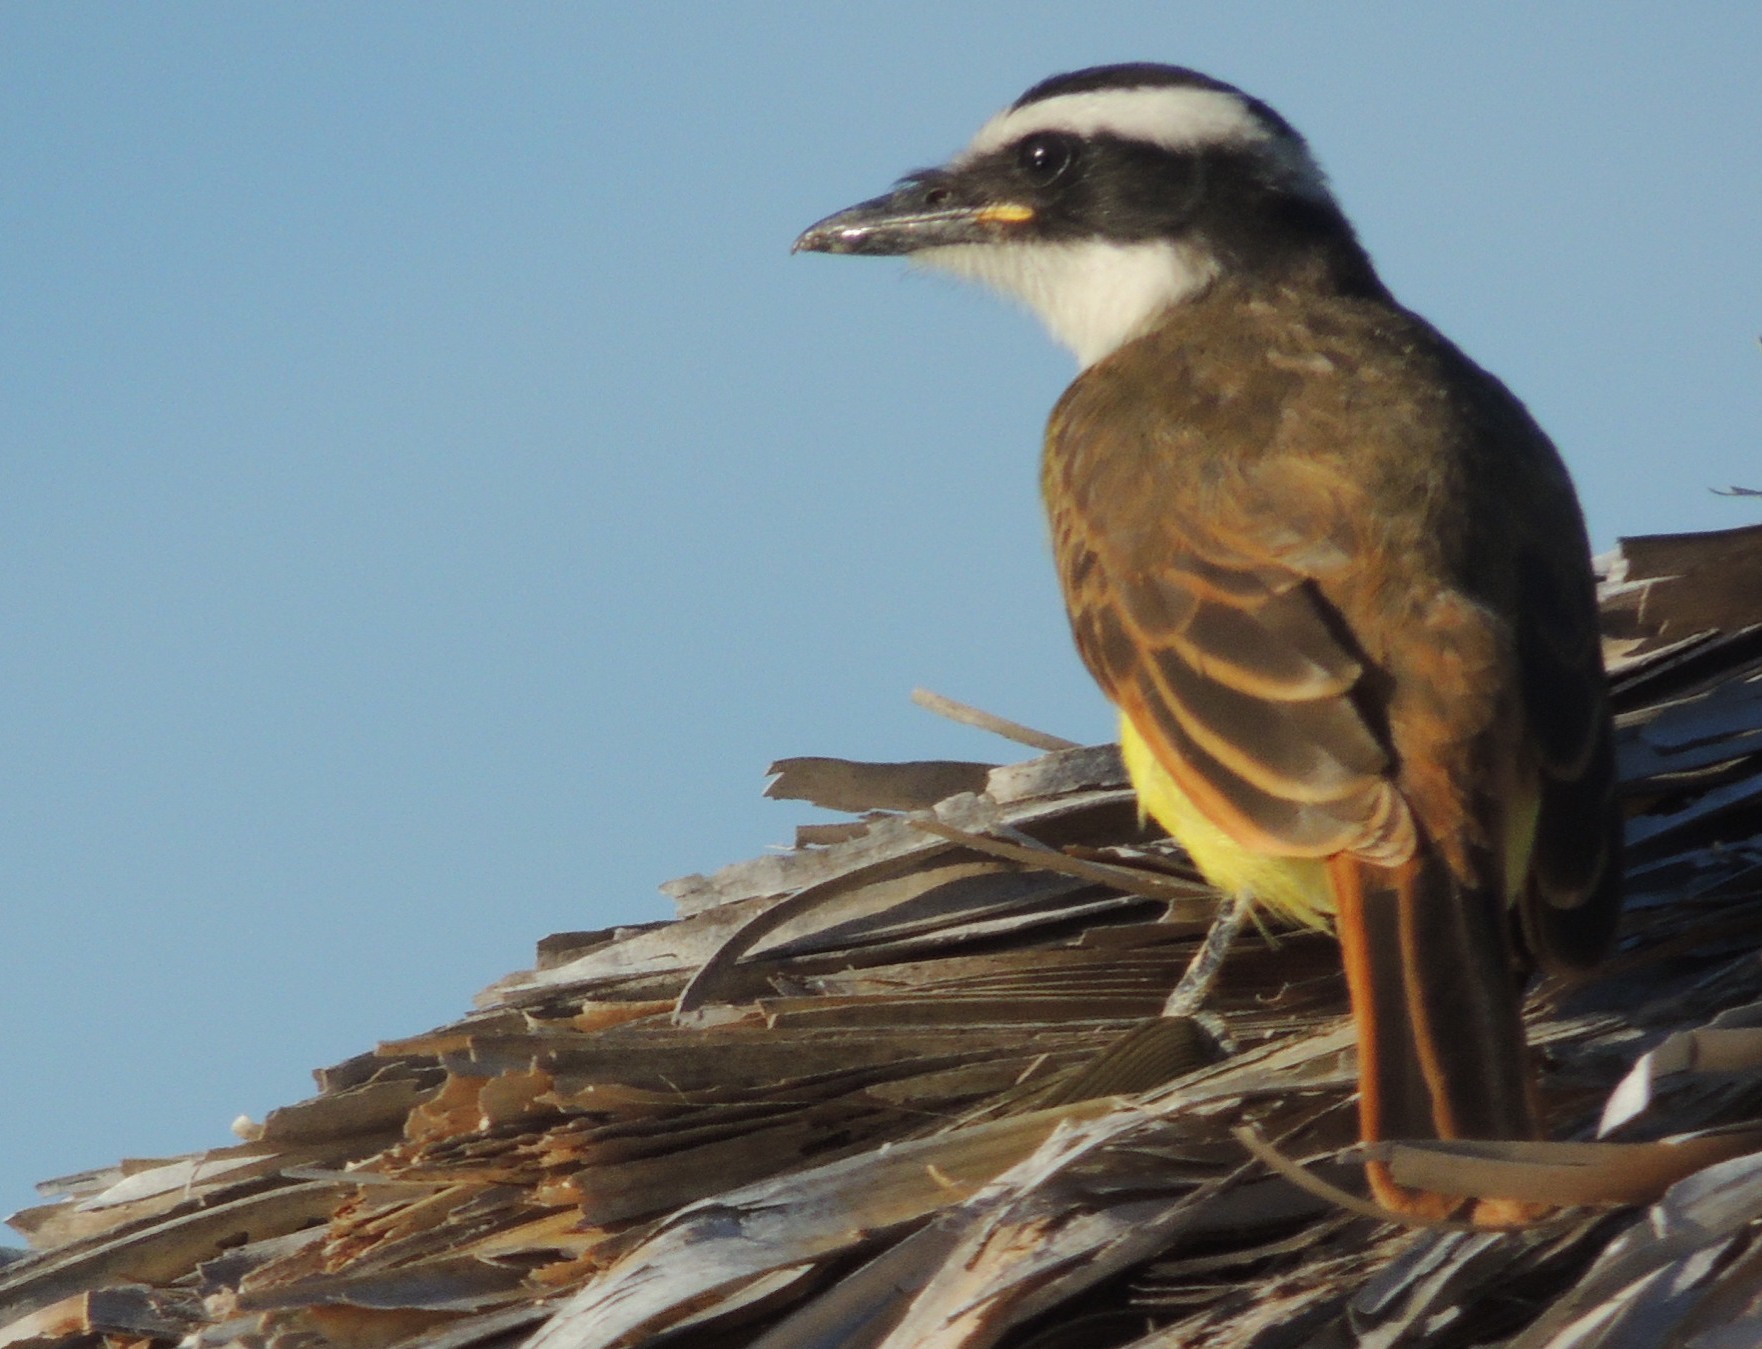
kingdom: Animalia
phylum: Chordata
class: Aves
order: Passeriformes
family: Tyrannidae
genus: Pitangus
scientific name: Pitangus sulphuratus
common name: Great kiskadee
